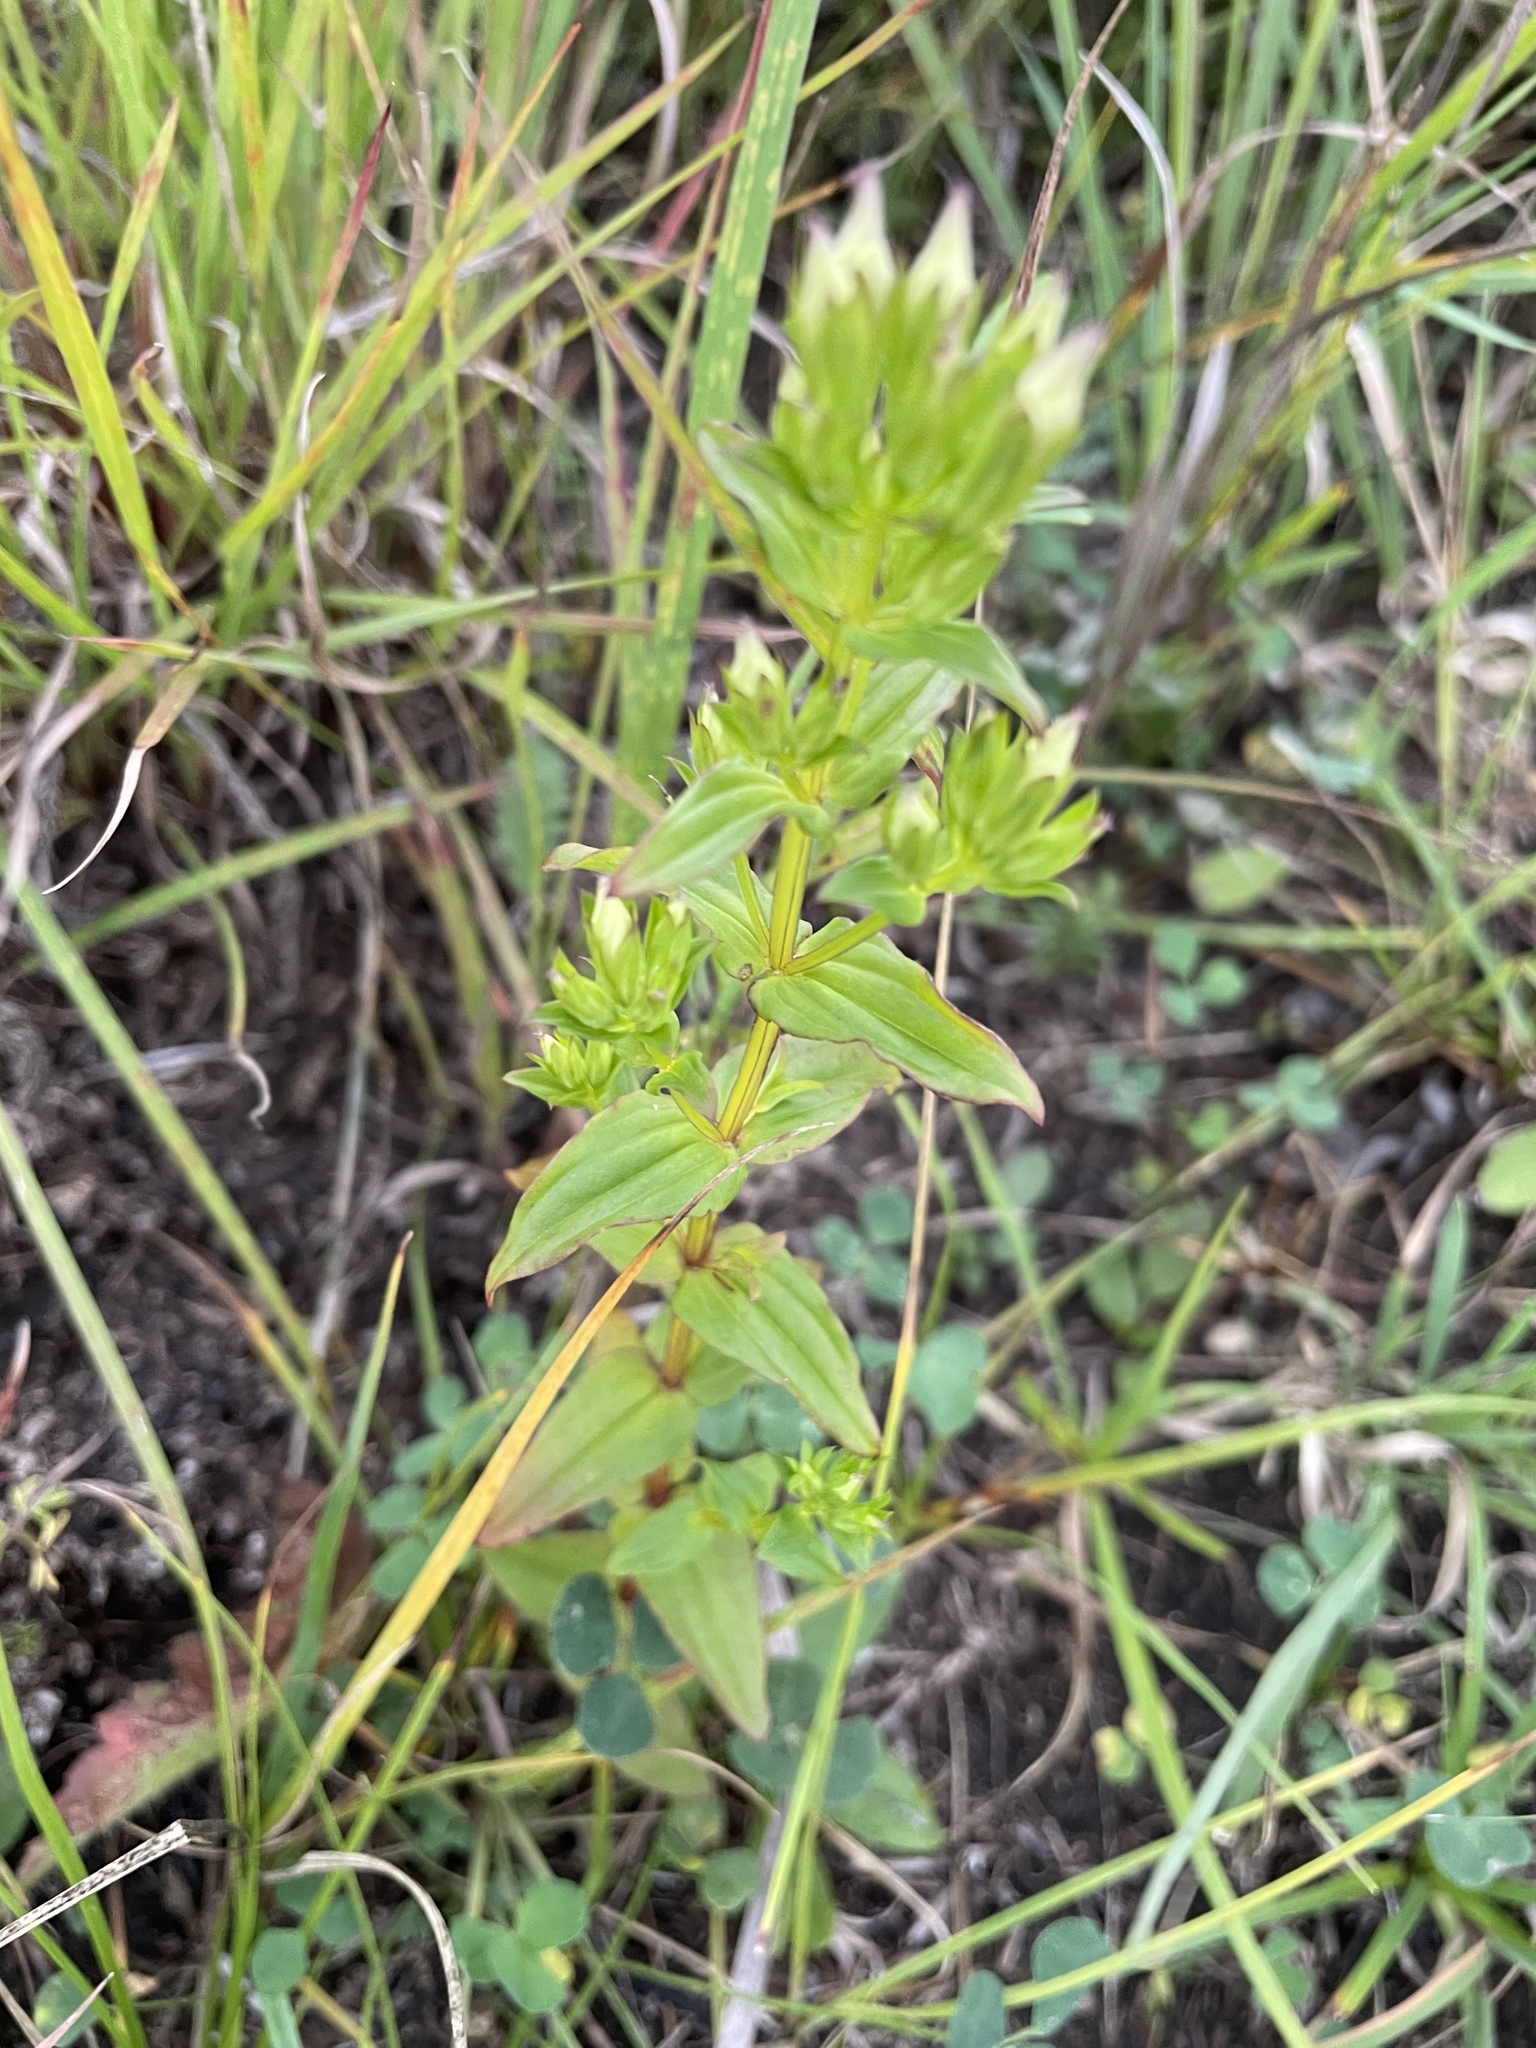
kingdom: Plantae
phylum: Tracheophyta
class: Magnoliopsida
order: Gentianales
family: Gentianaceae
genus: Gentianella
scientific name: Gentianella quinquefolia
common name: Agueweed
